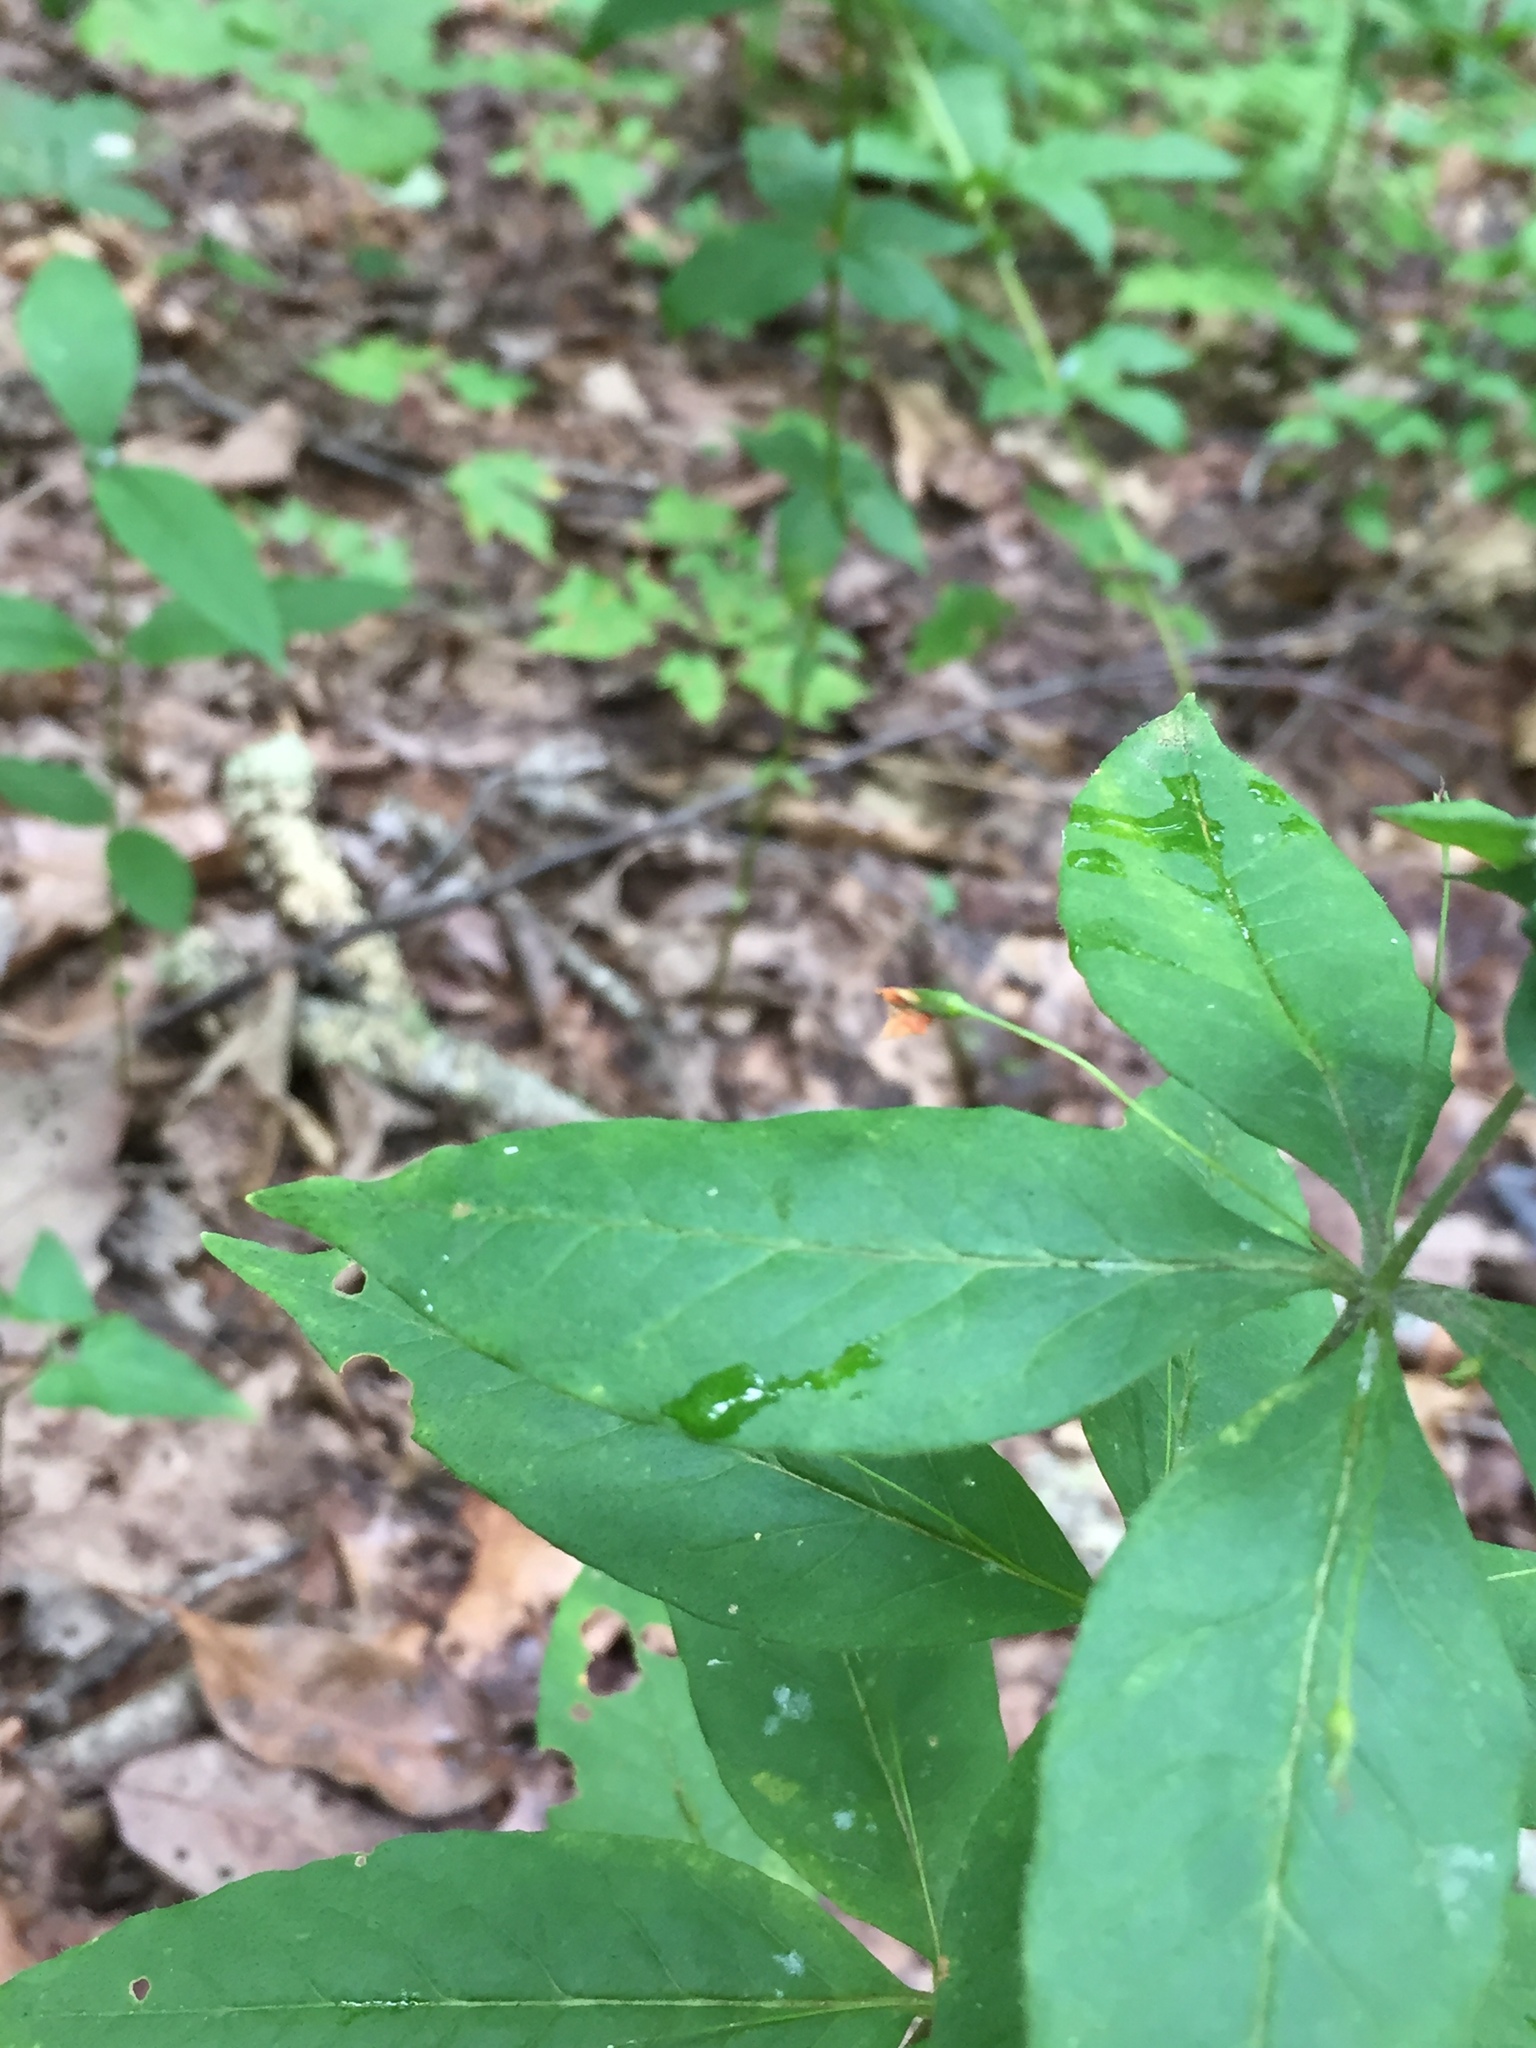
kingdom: Plantae
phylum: Tracheophyta
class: Magnoliopsida
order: Ericales
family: Primulaceae
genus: Lysimachia
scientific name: Lysimachia quadrifolia
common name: Whorled loosestrife
